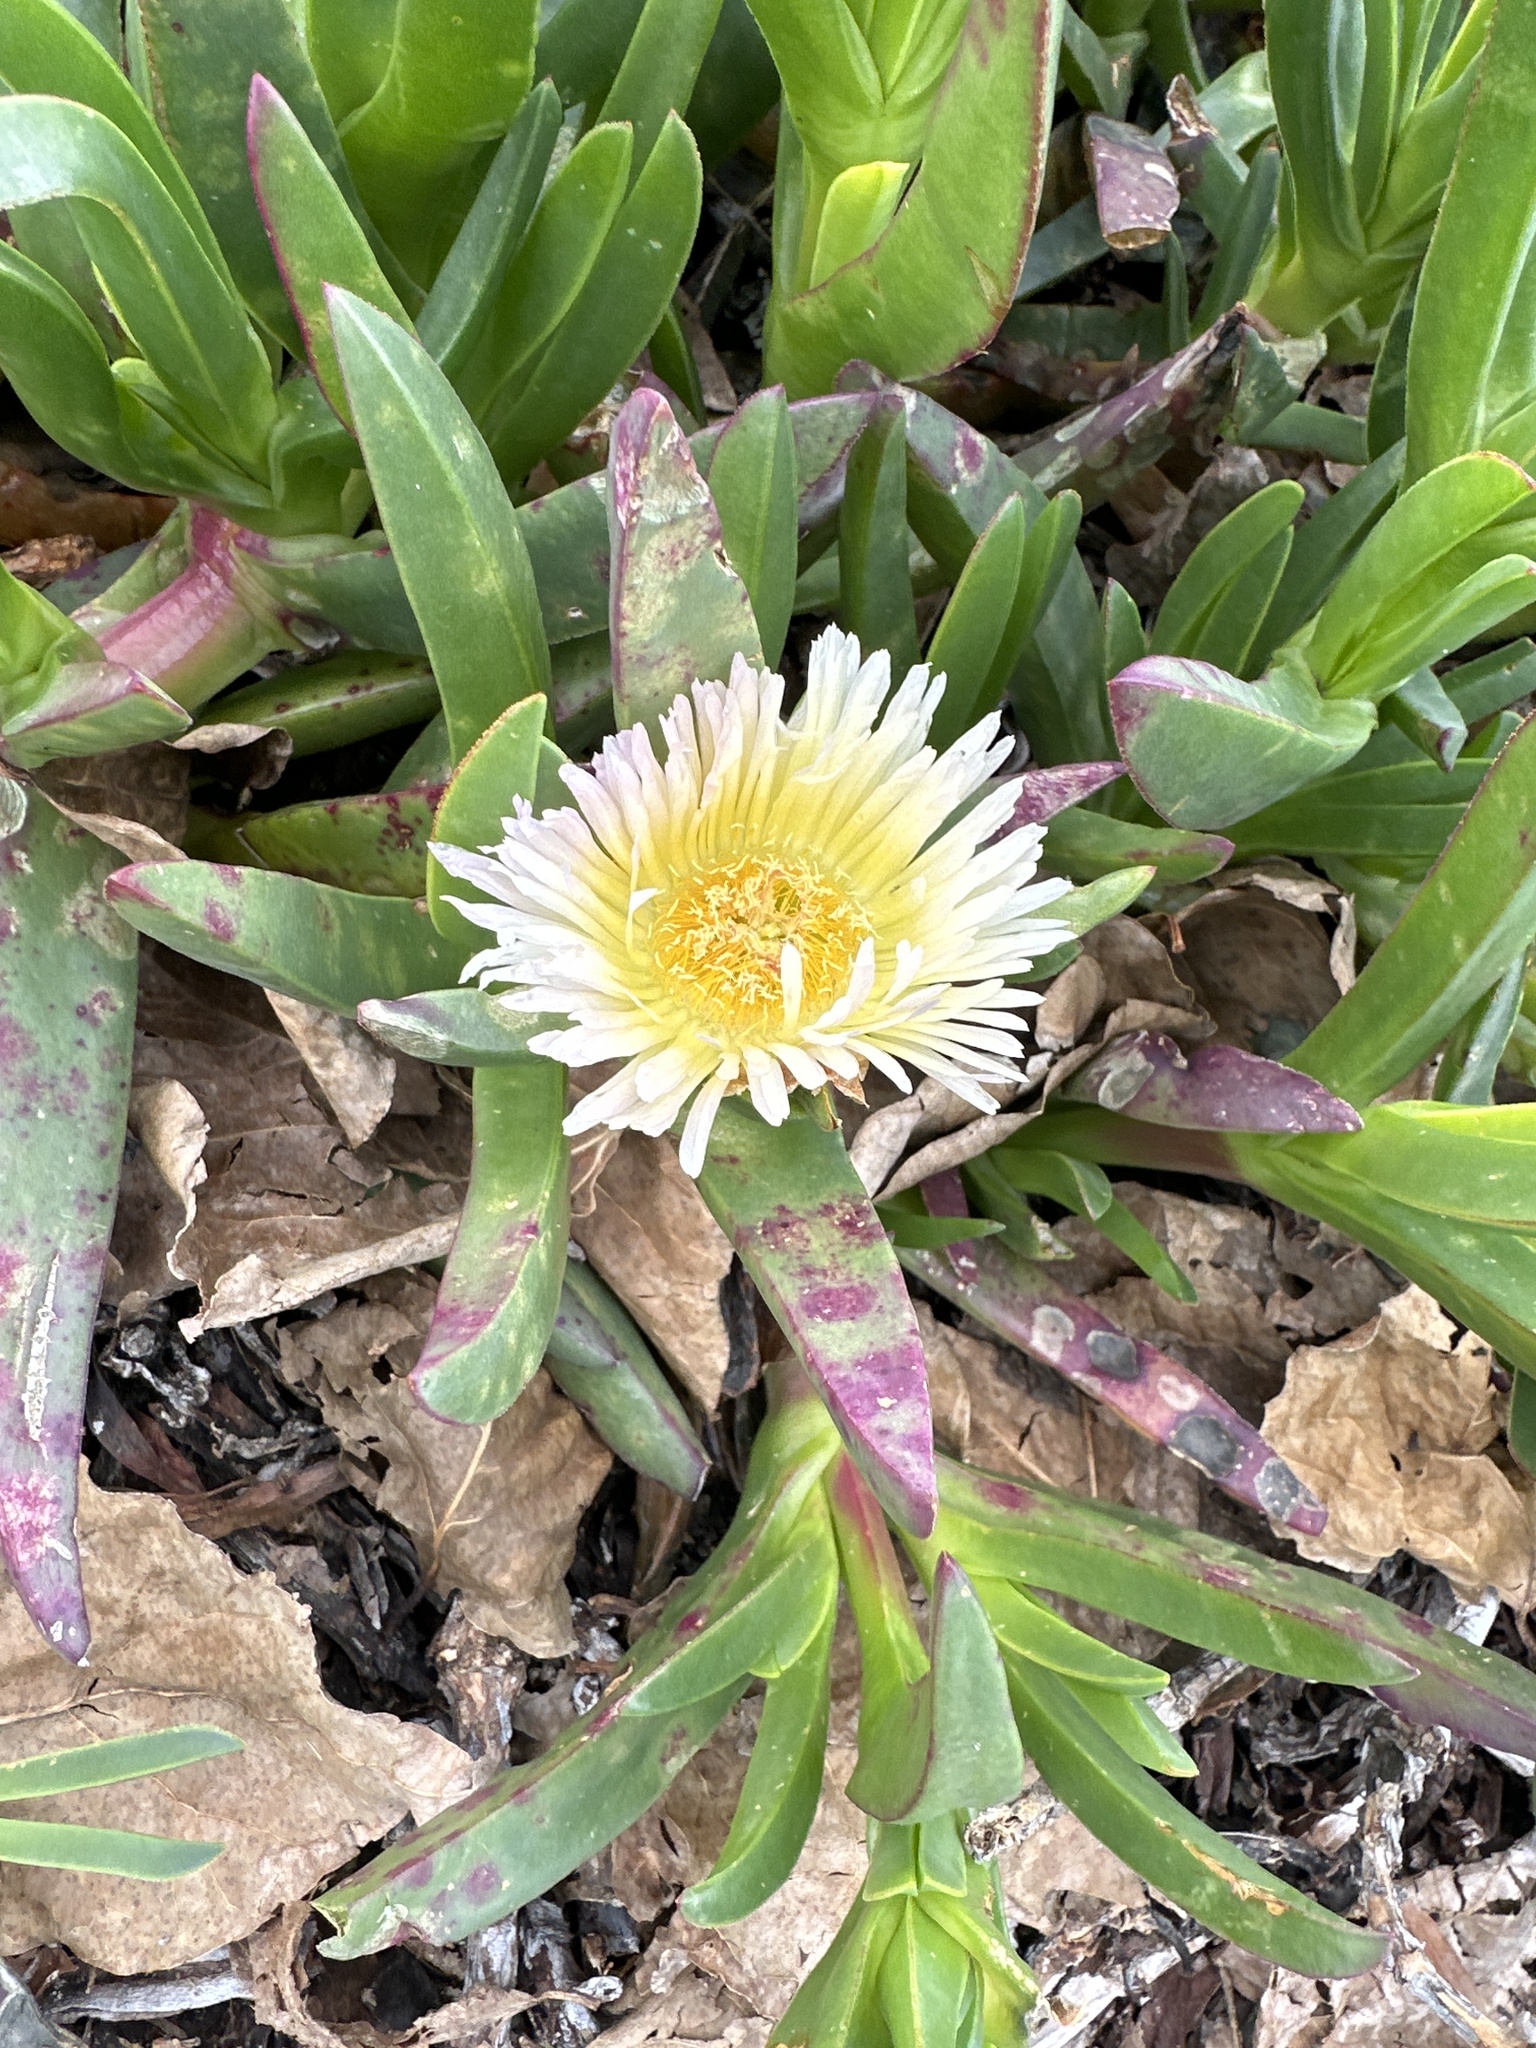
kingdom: Plantae
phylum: Tracheophyta
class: Magnoliopsida
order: Caryophyllales
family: Aizoaceae
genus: Carpobrotus
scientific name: Carpobrotus edulis
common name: Hottentot-fig
